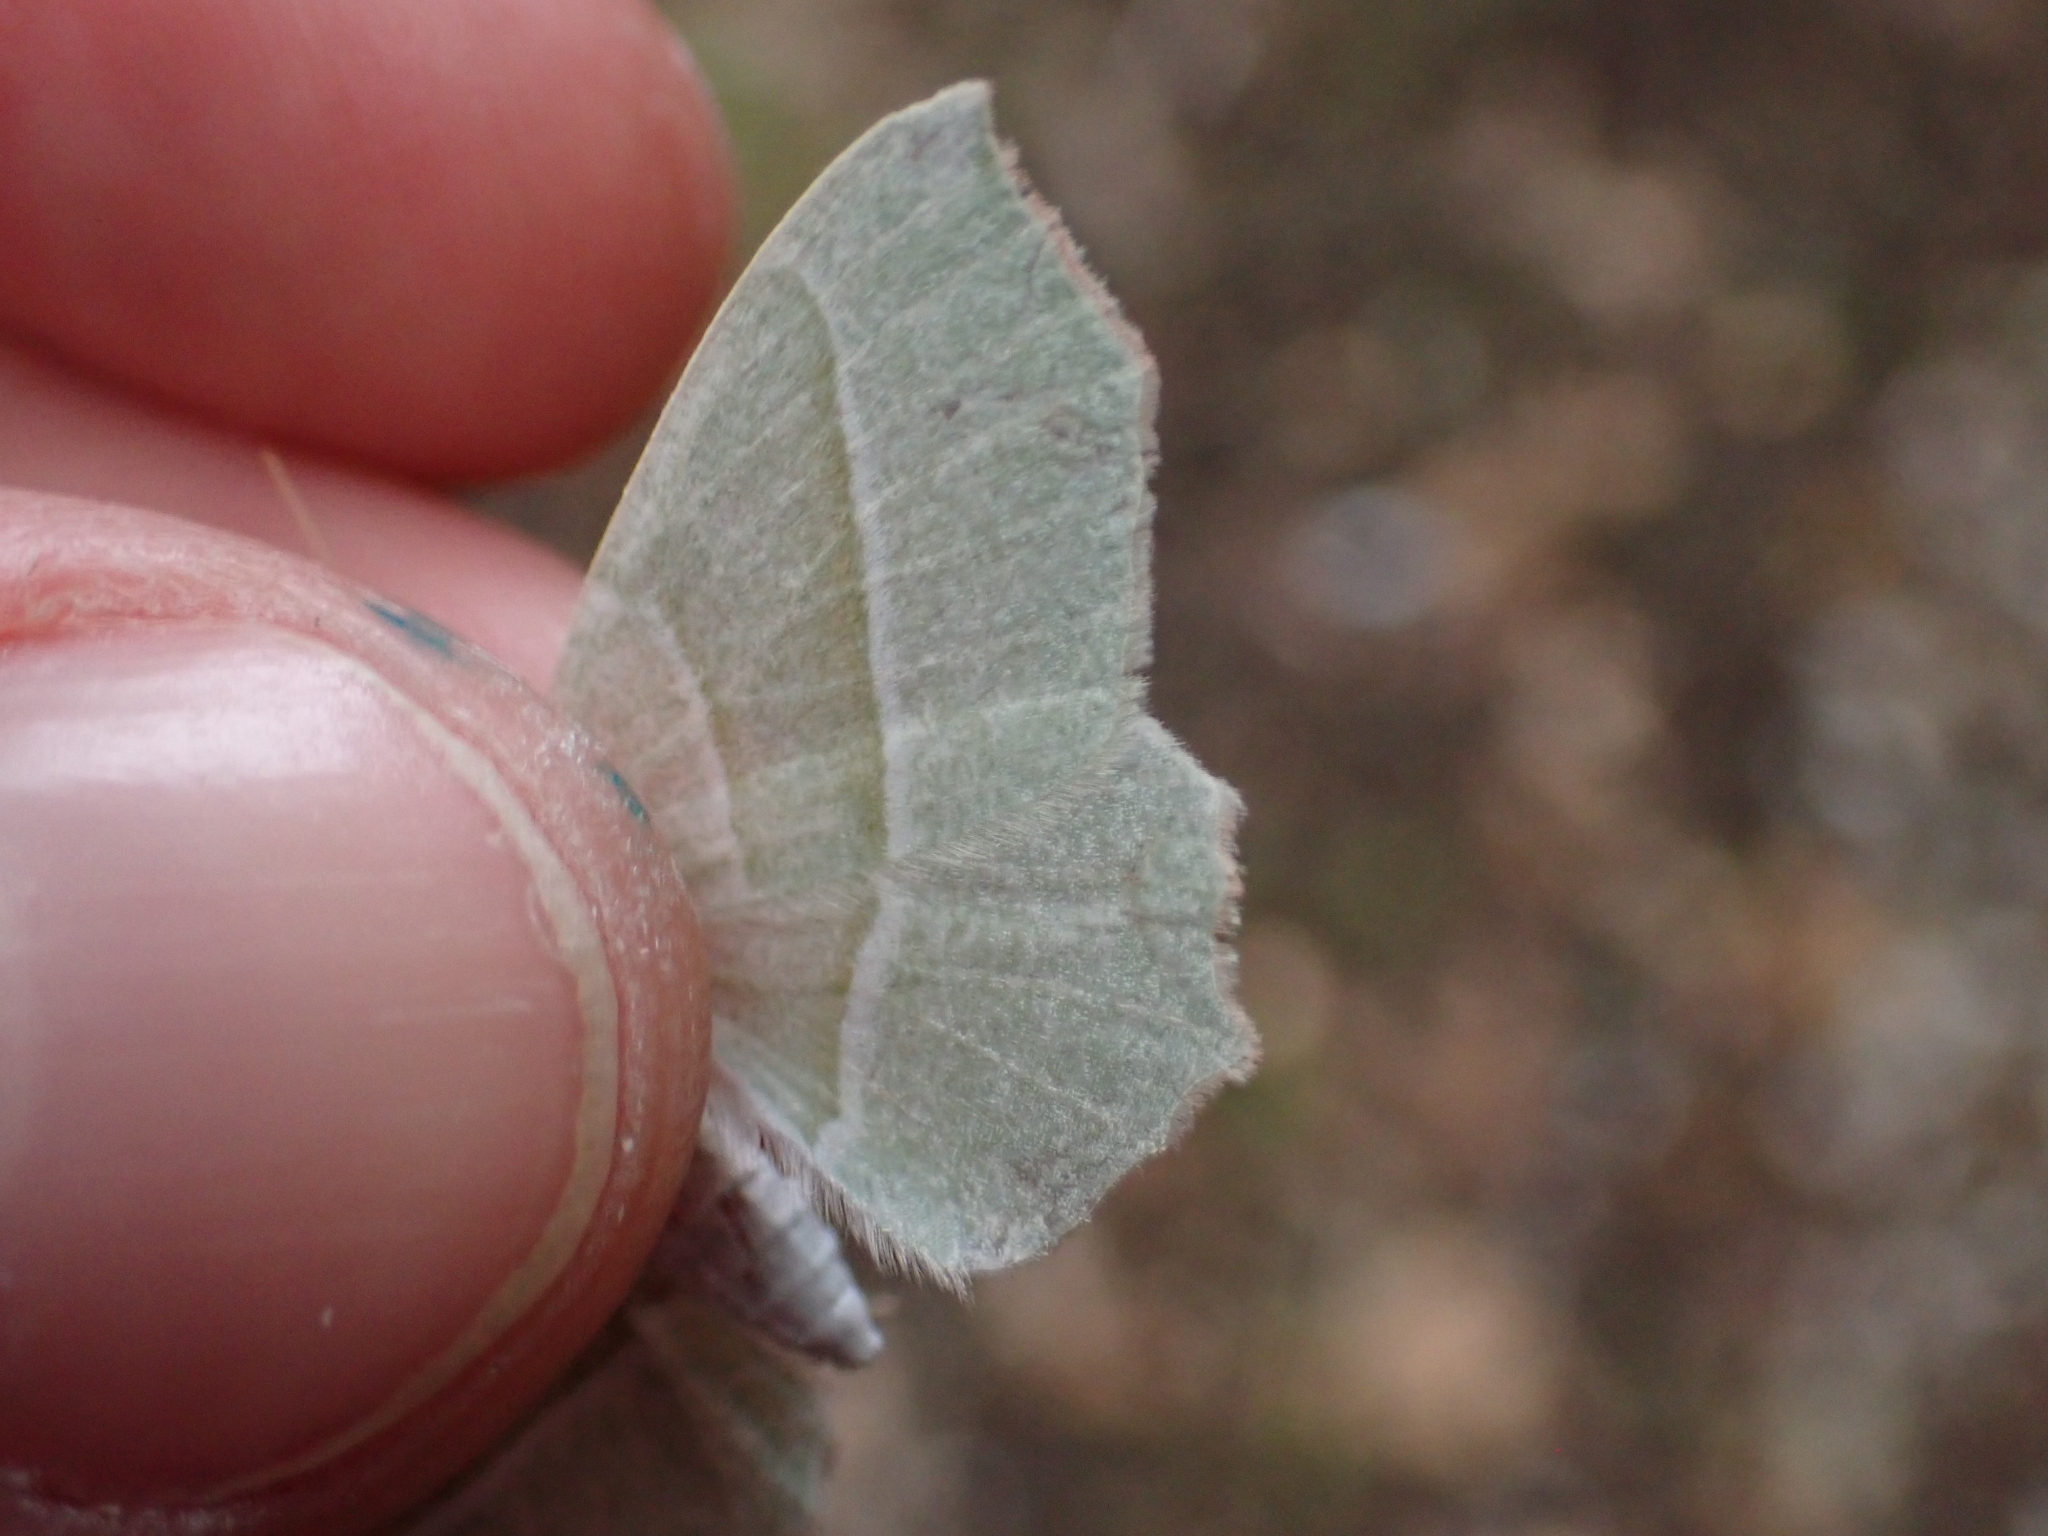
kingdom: Animalia
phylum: Arthropoda
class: Insecta
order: Lepidoptera
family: Geometridae
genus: Campaea
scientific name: Campaea margaritaria
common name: Light emerald
